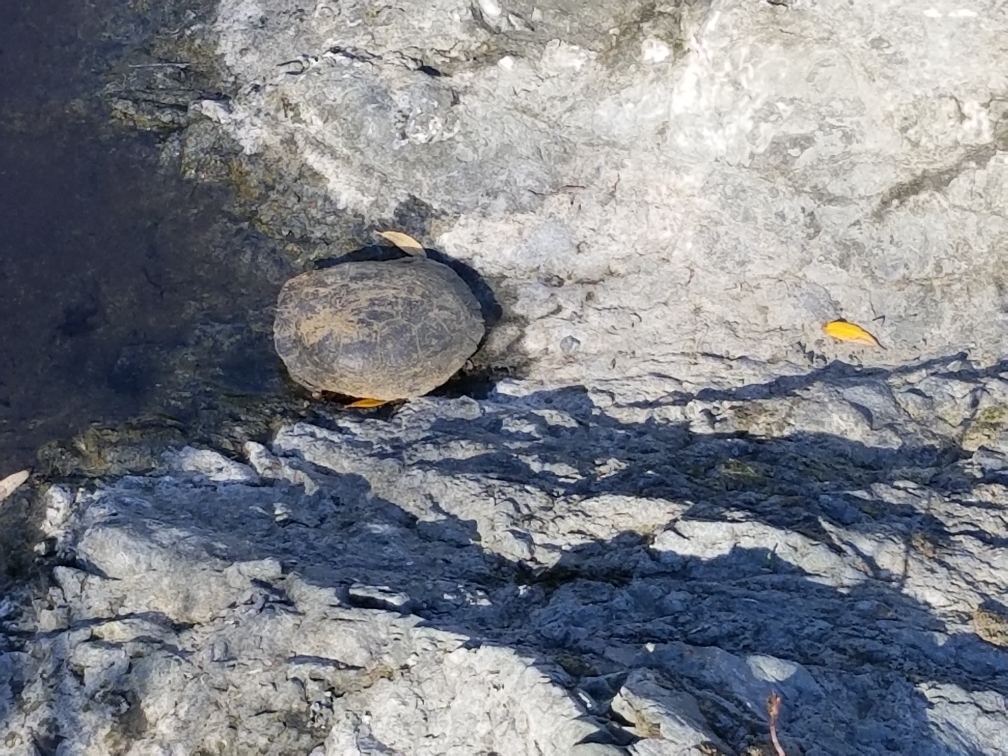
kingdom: Animalia
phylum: Chordata
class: Testudines
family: Emydidae
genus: Actinemys
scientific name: Actinemys marmorata
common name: Western pond turtle
